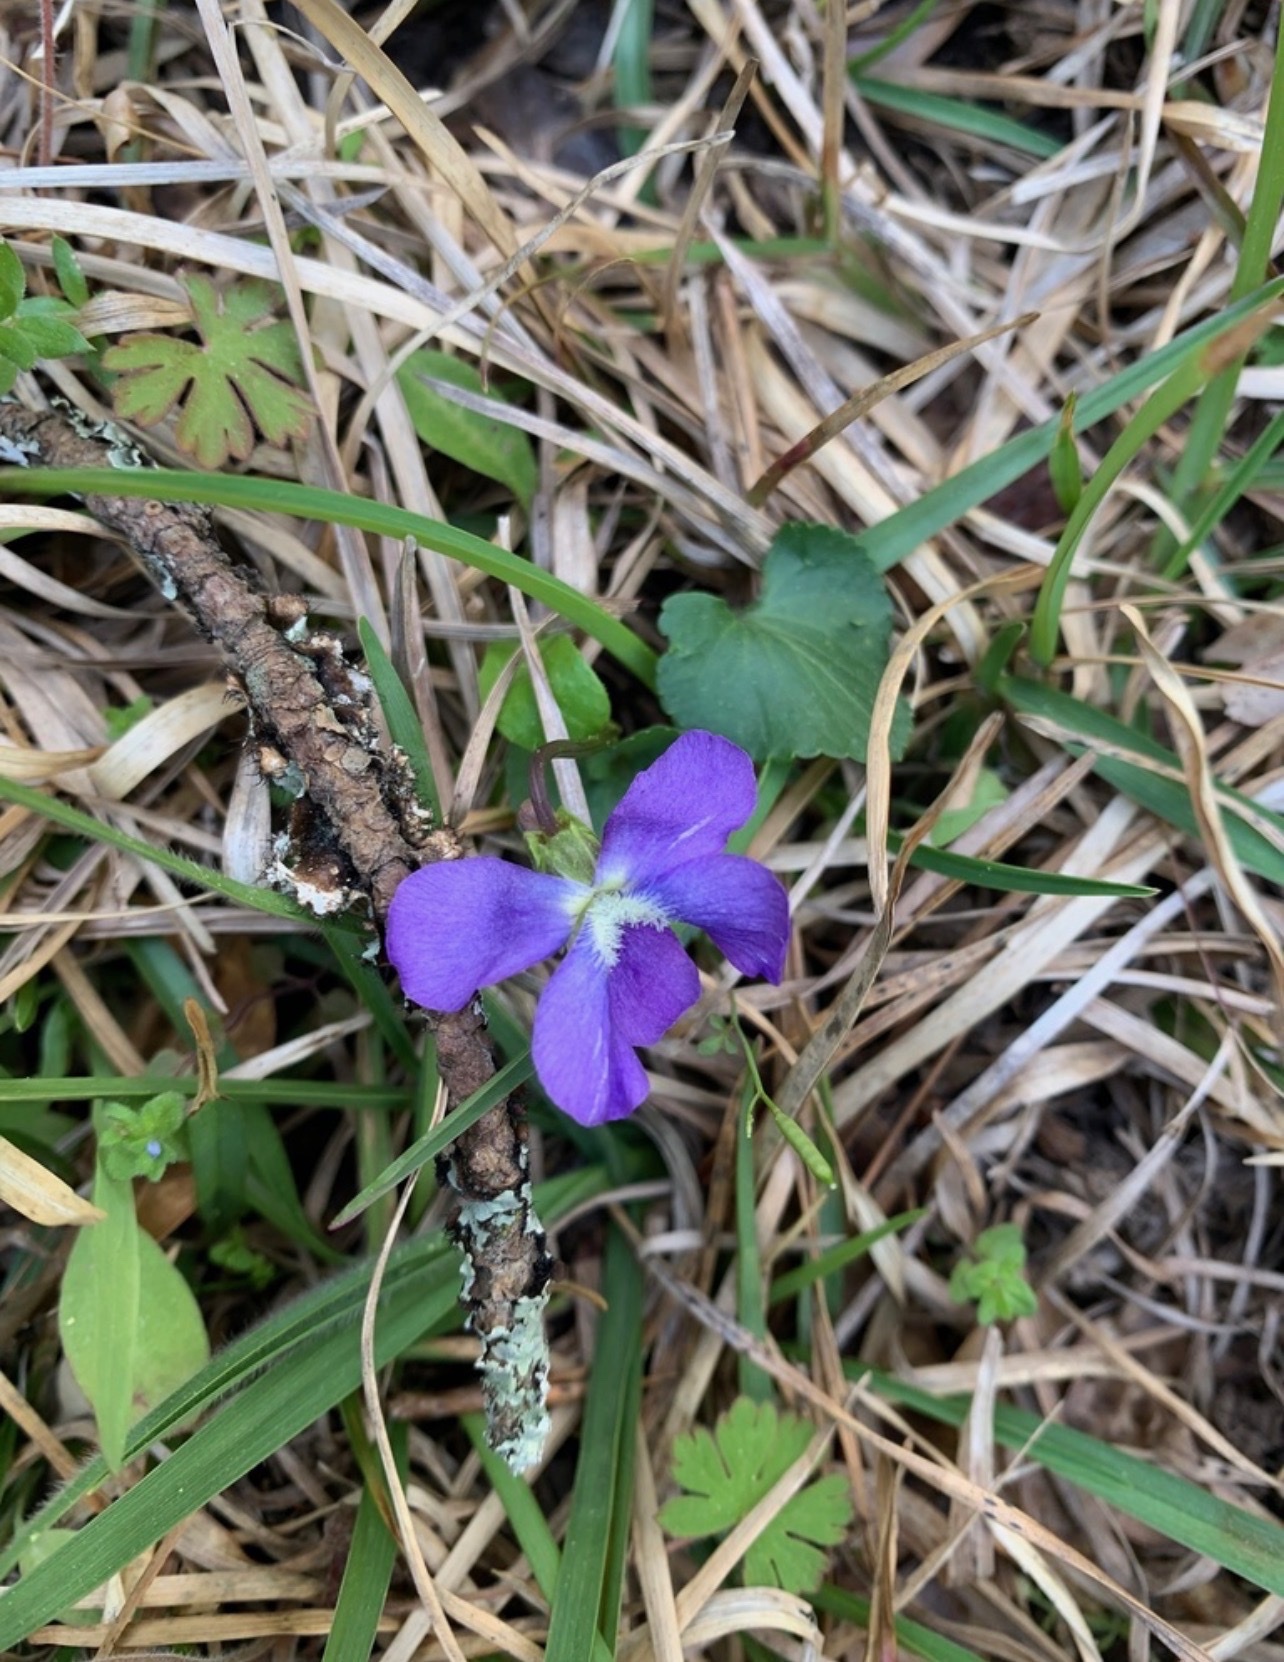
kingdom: Plantae
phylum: Tracheophyta
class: Magnoliopsida
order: Malpighiales
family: Violaceae
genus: Viola
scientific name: Viola sororia
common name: Dooryard violet
